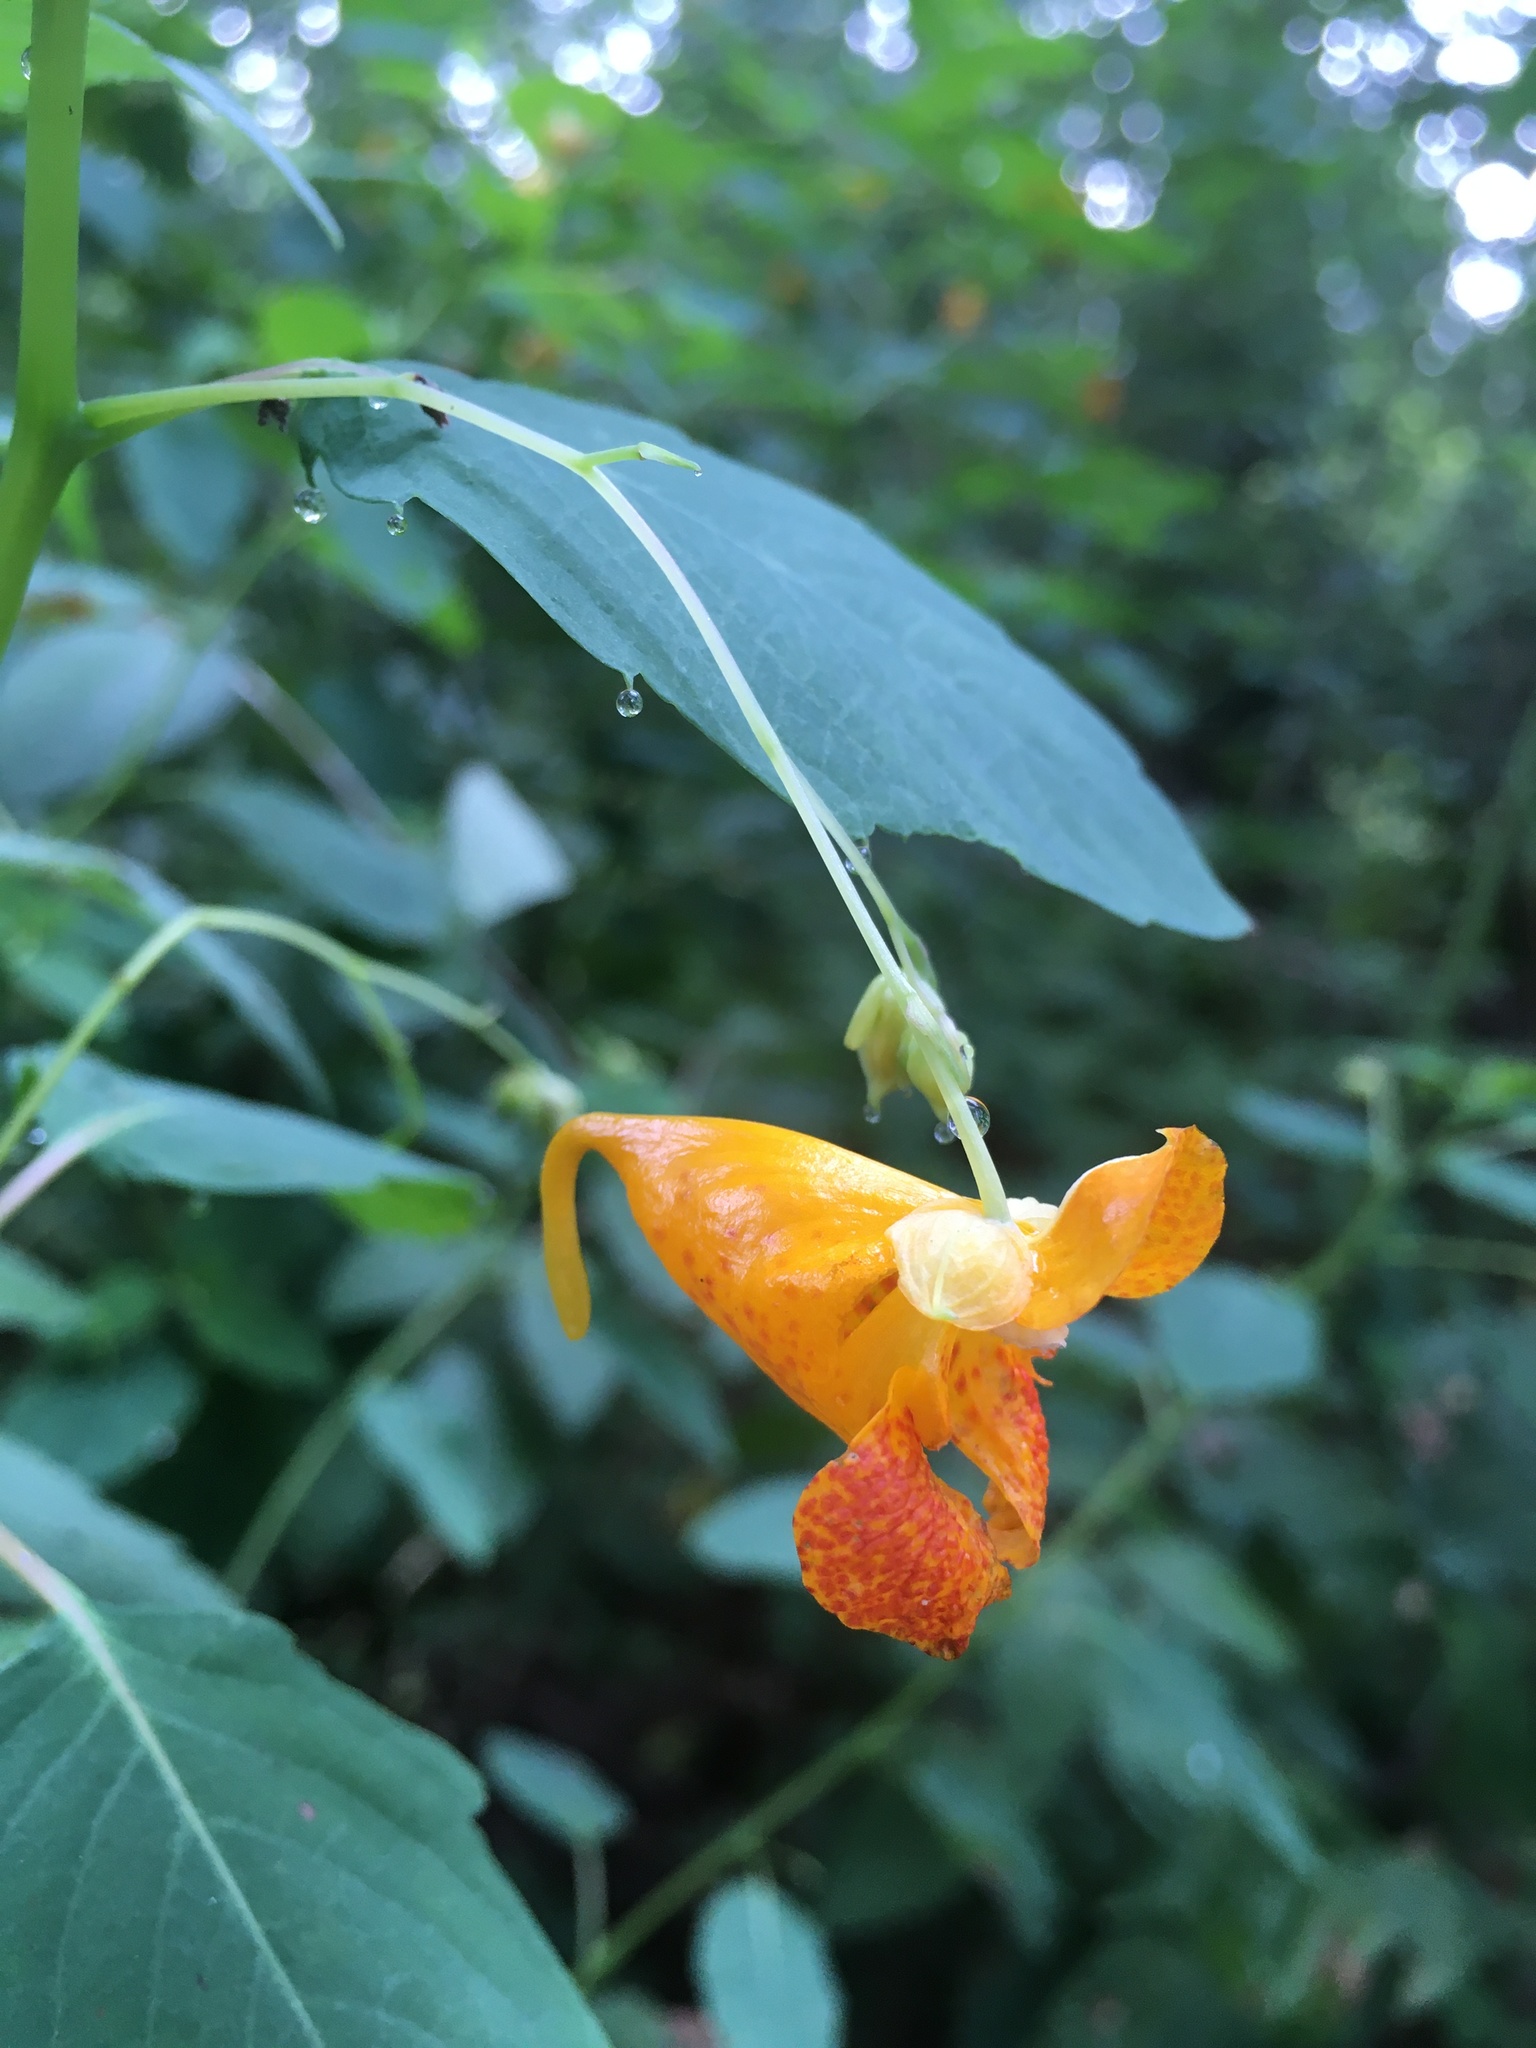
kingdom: Plantae
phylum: Tracheophyta
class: Magnoliopsida
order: Ericales
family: Balsaminaceae
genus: Impatiens
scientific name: Impatiens capensis
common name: Orange balsam
